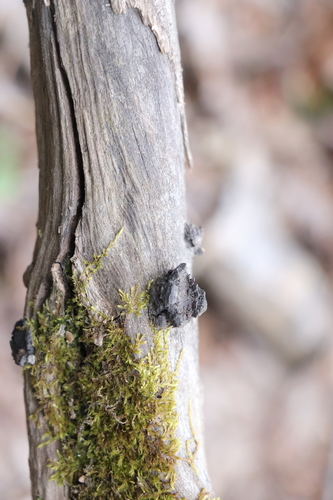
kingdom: Fungi
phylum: Ascomycota
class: Sordariomycetes
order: Xylariales
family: Graphostromataceae
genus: Biscogniauxia
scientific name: Biscogniauxia repanda
